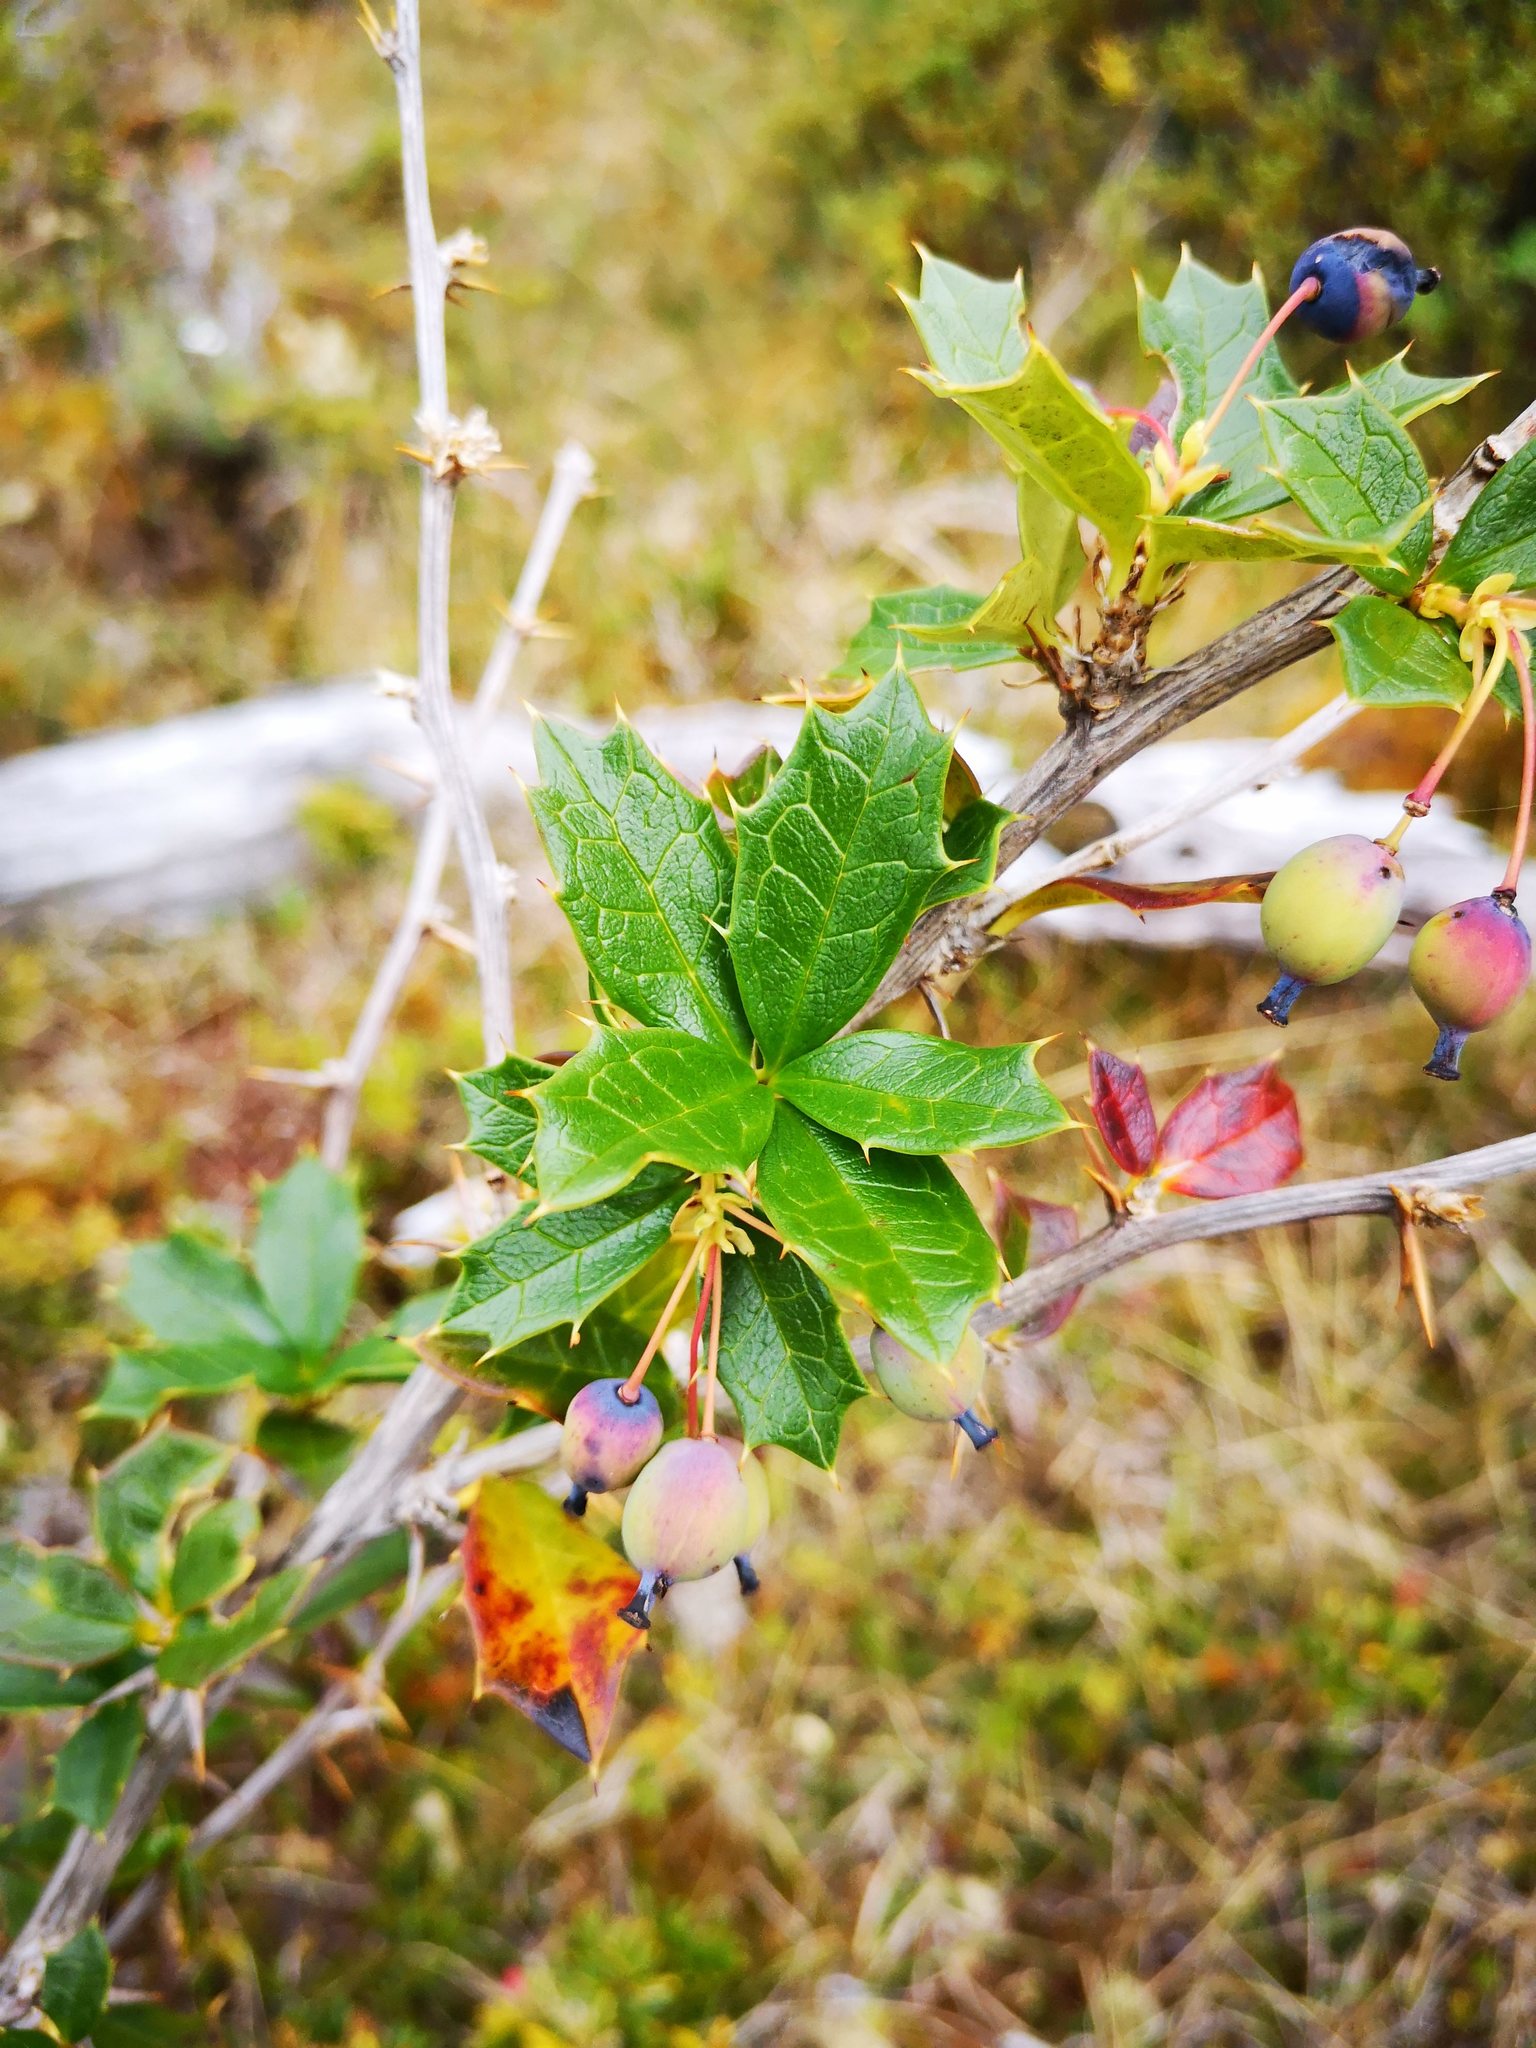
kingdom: Plantae
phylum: Tracheophyta
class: Magnoliopsida
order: Ranunculales
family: Berberidaceae
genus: Berberis
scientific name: Berberis ilicifolia
